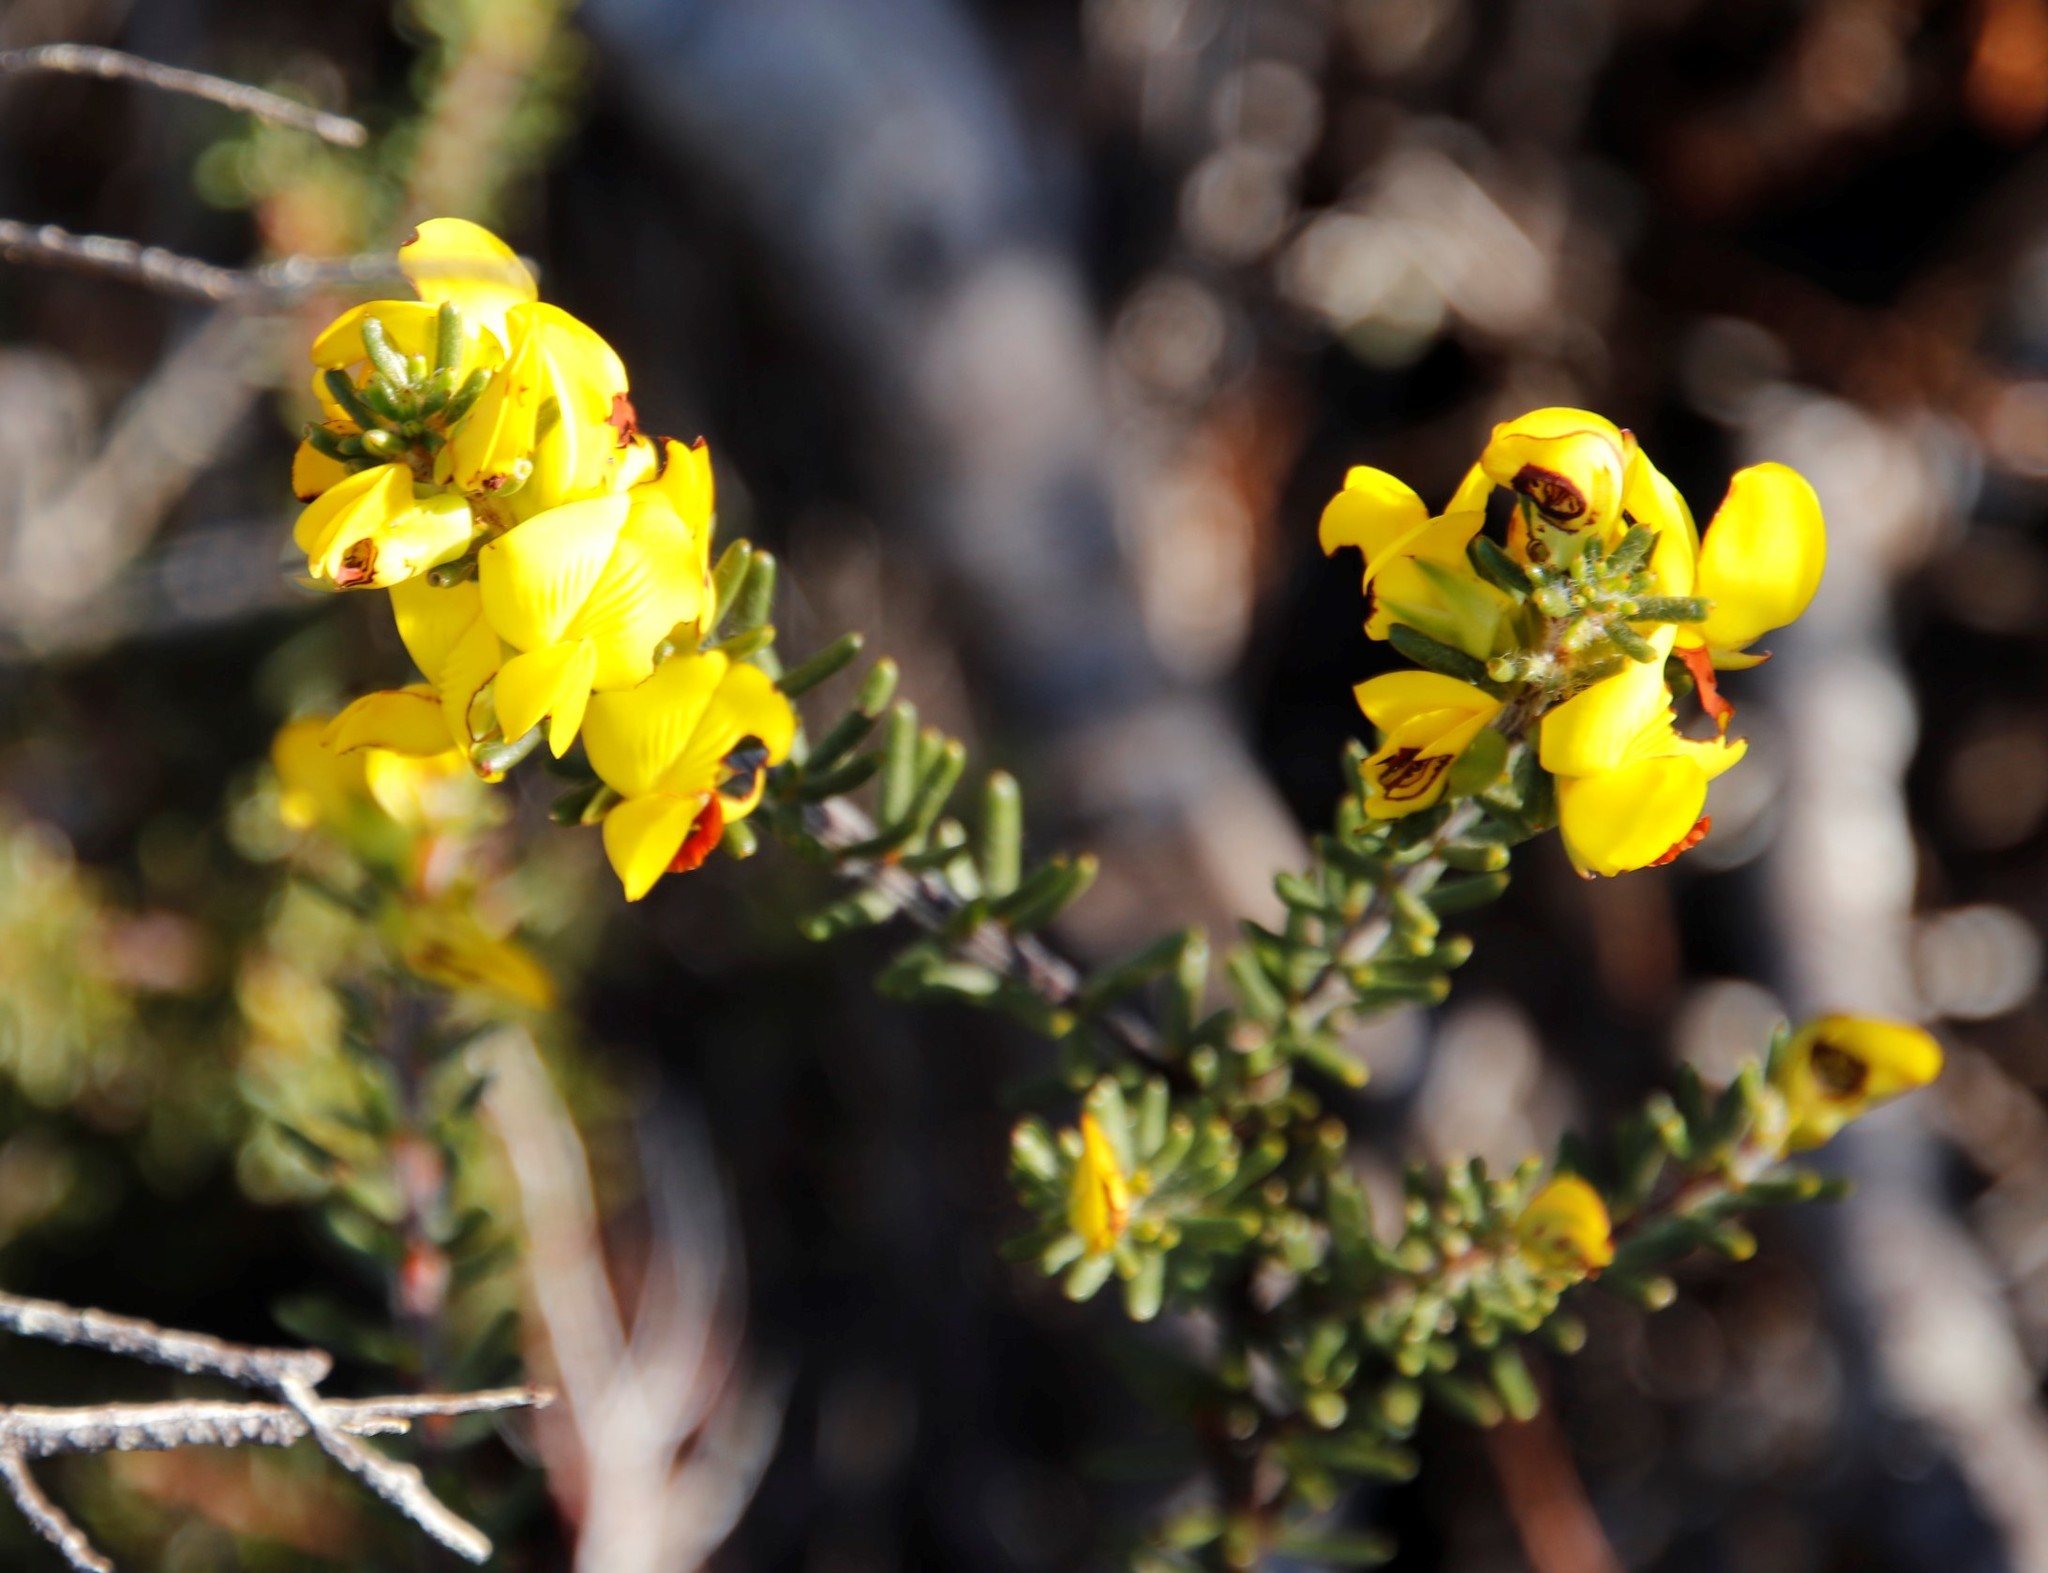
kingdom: Plantae
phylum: Tracheophyta
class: Magnoliopsida
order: Fabales
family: Fabaceae
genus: Cyclopia
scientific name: Cyclopia galioides
